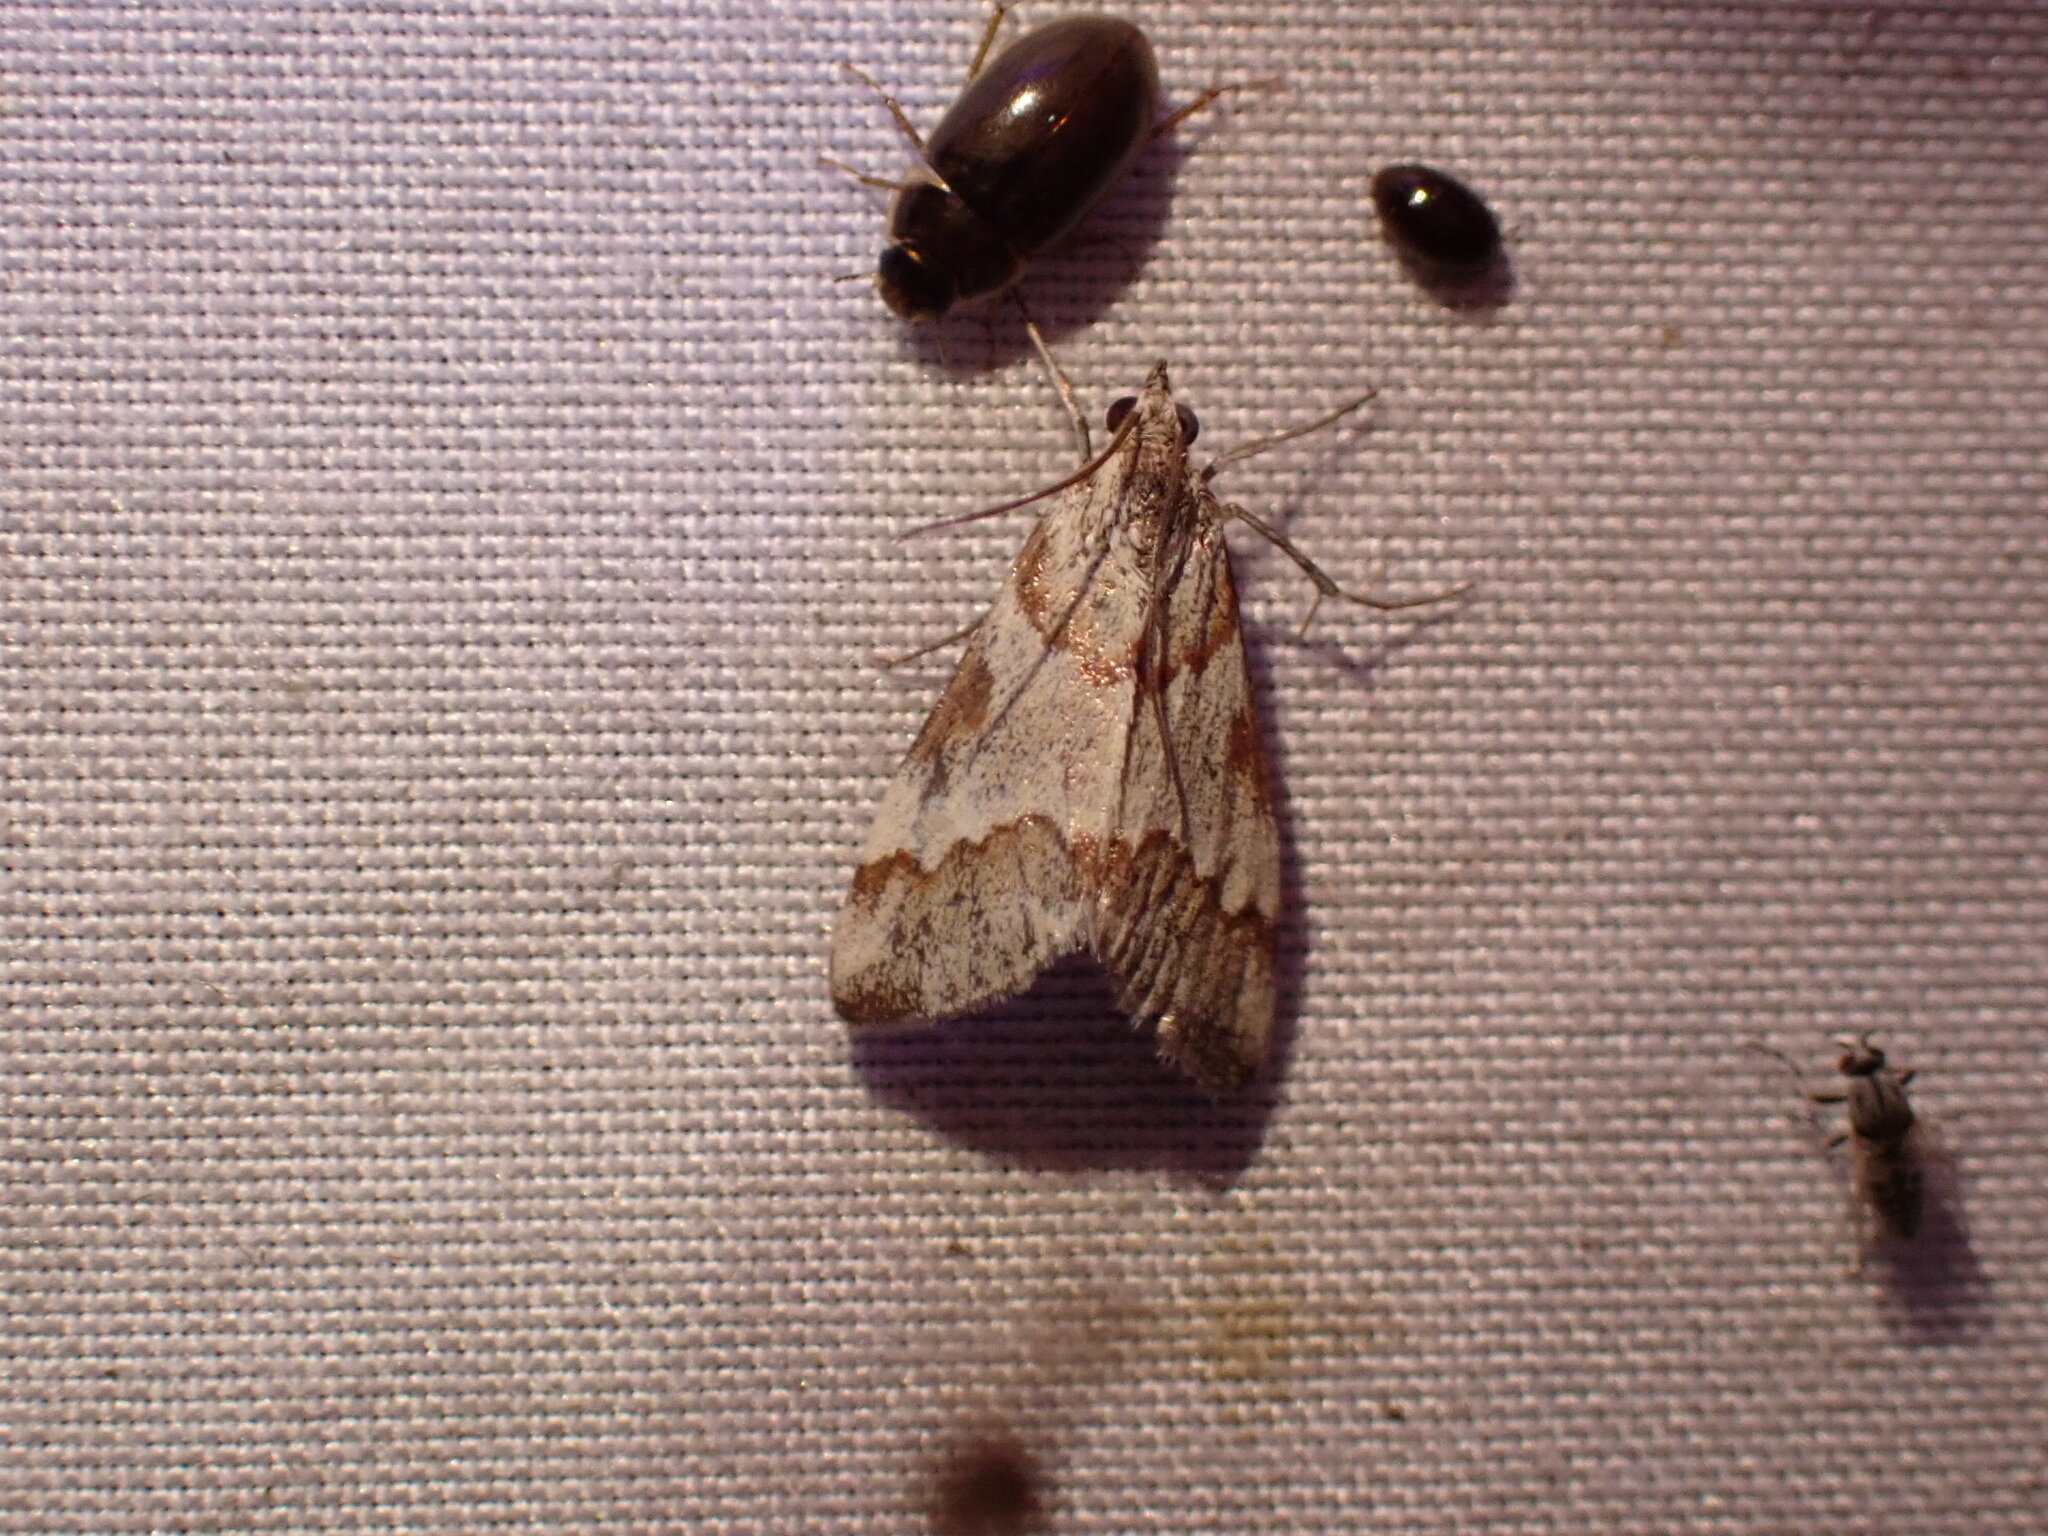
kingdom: Animalia
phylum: Arthropoda
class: Insecta
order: Lepidoptera
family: Crambidae
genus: Noctuelia
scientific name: Noctuelia Mimoschinia rufofascialis
